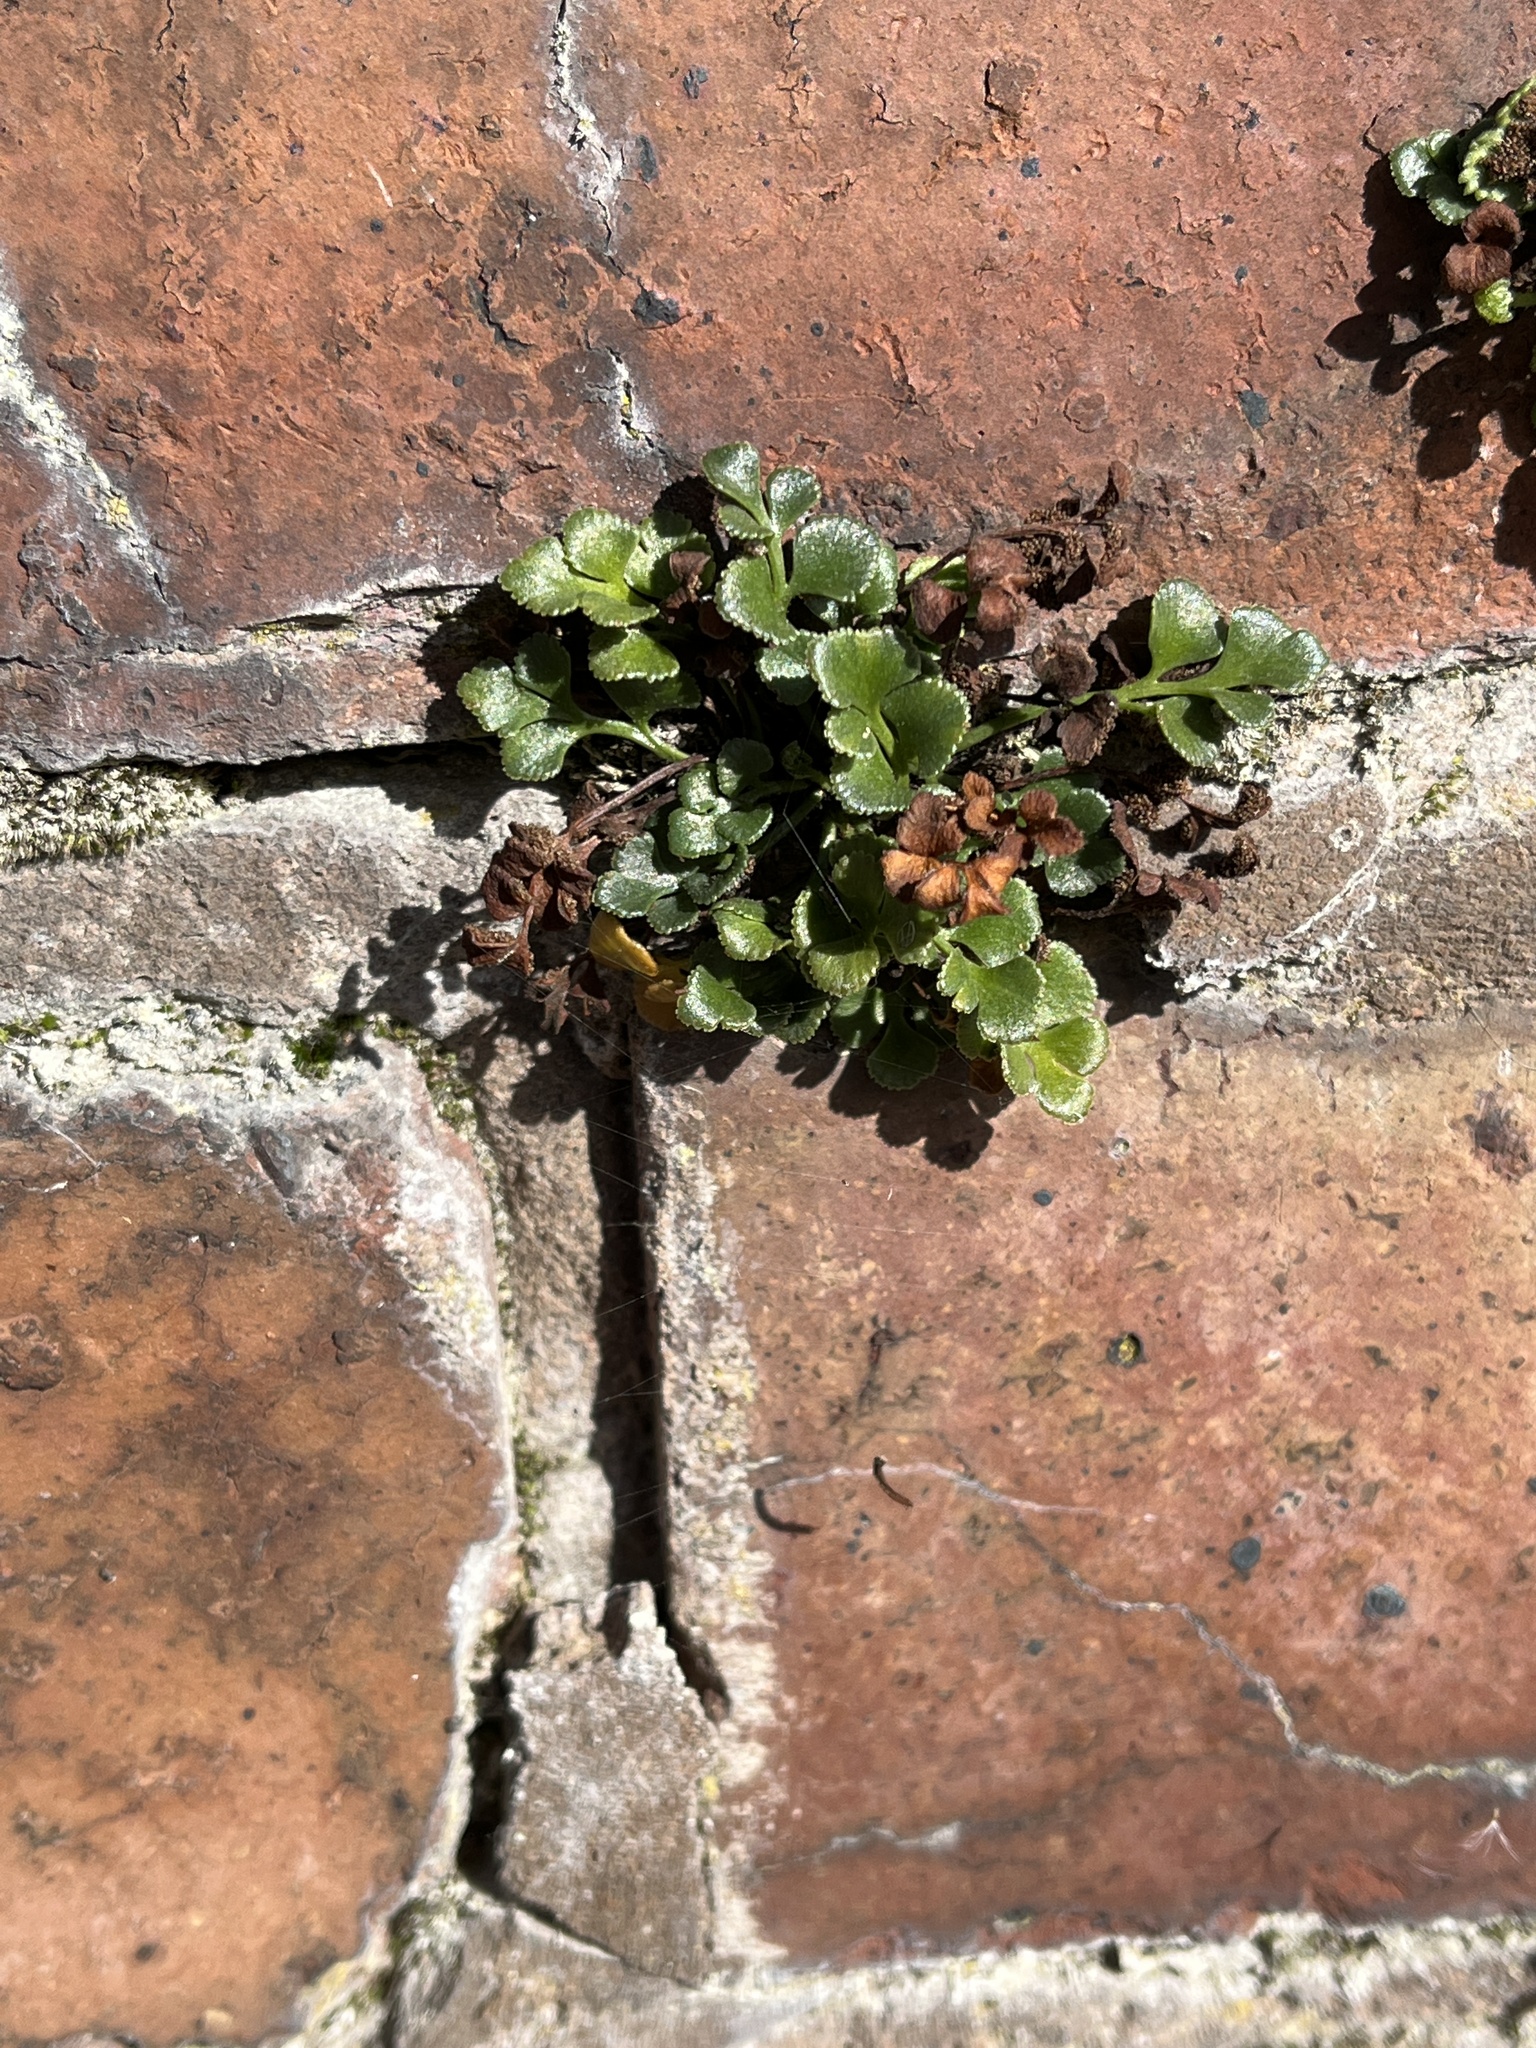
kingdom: Plantae
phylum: Tracheophyta
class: Polypodiopsida
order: Polypodiales
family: Aspleniaceae
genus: Asplenium
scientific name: Asplenium ruta-muraria
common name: Wall-rue
